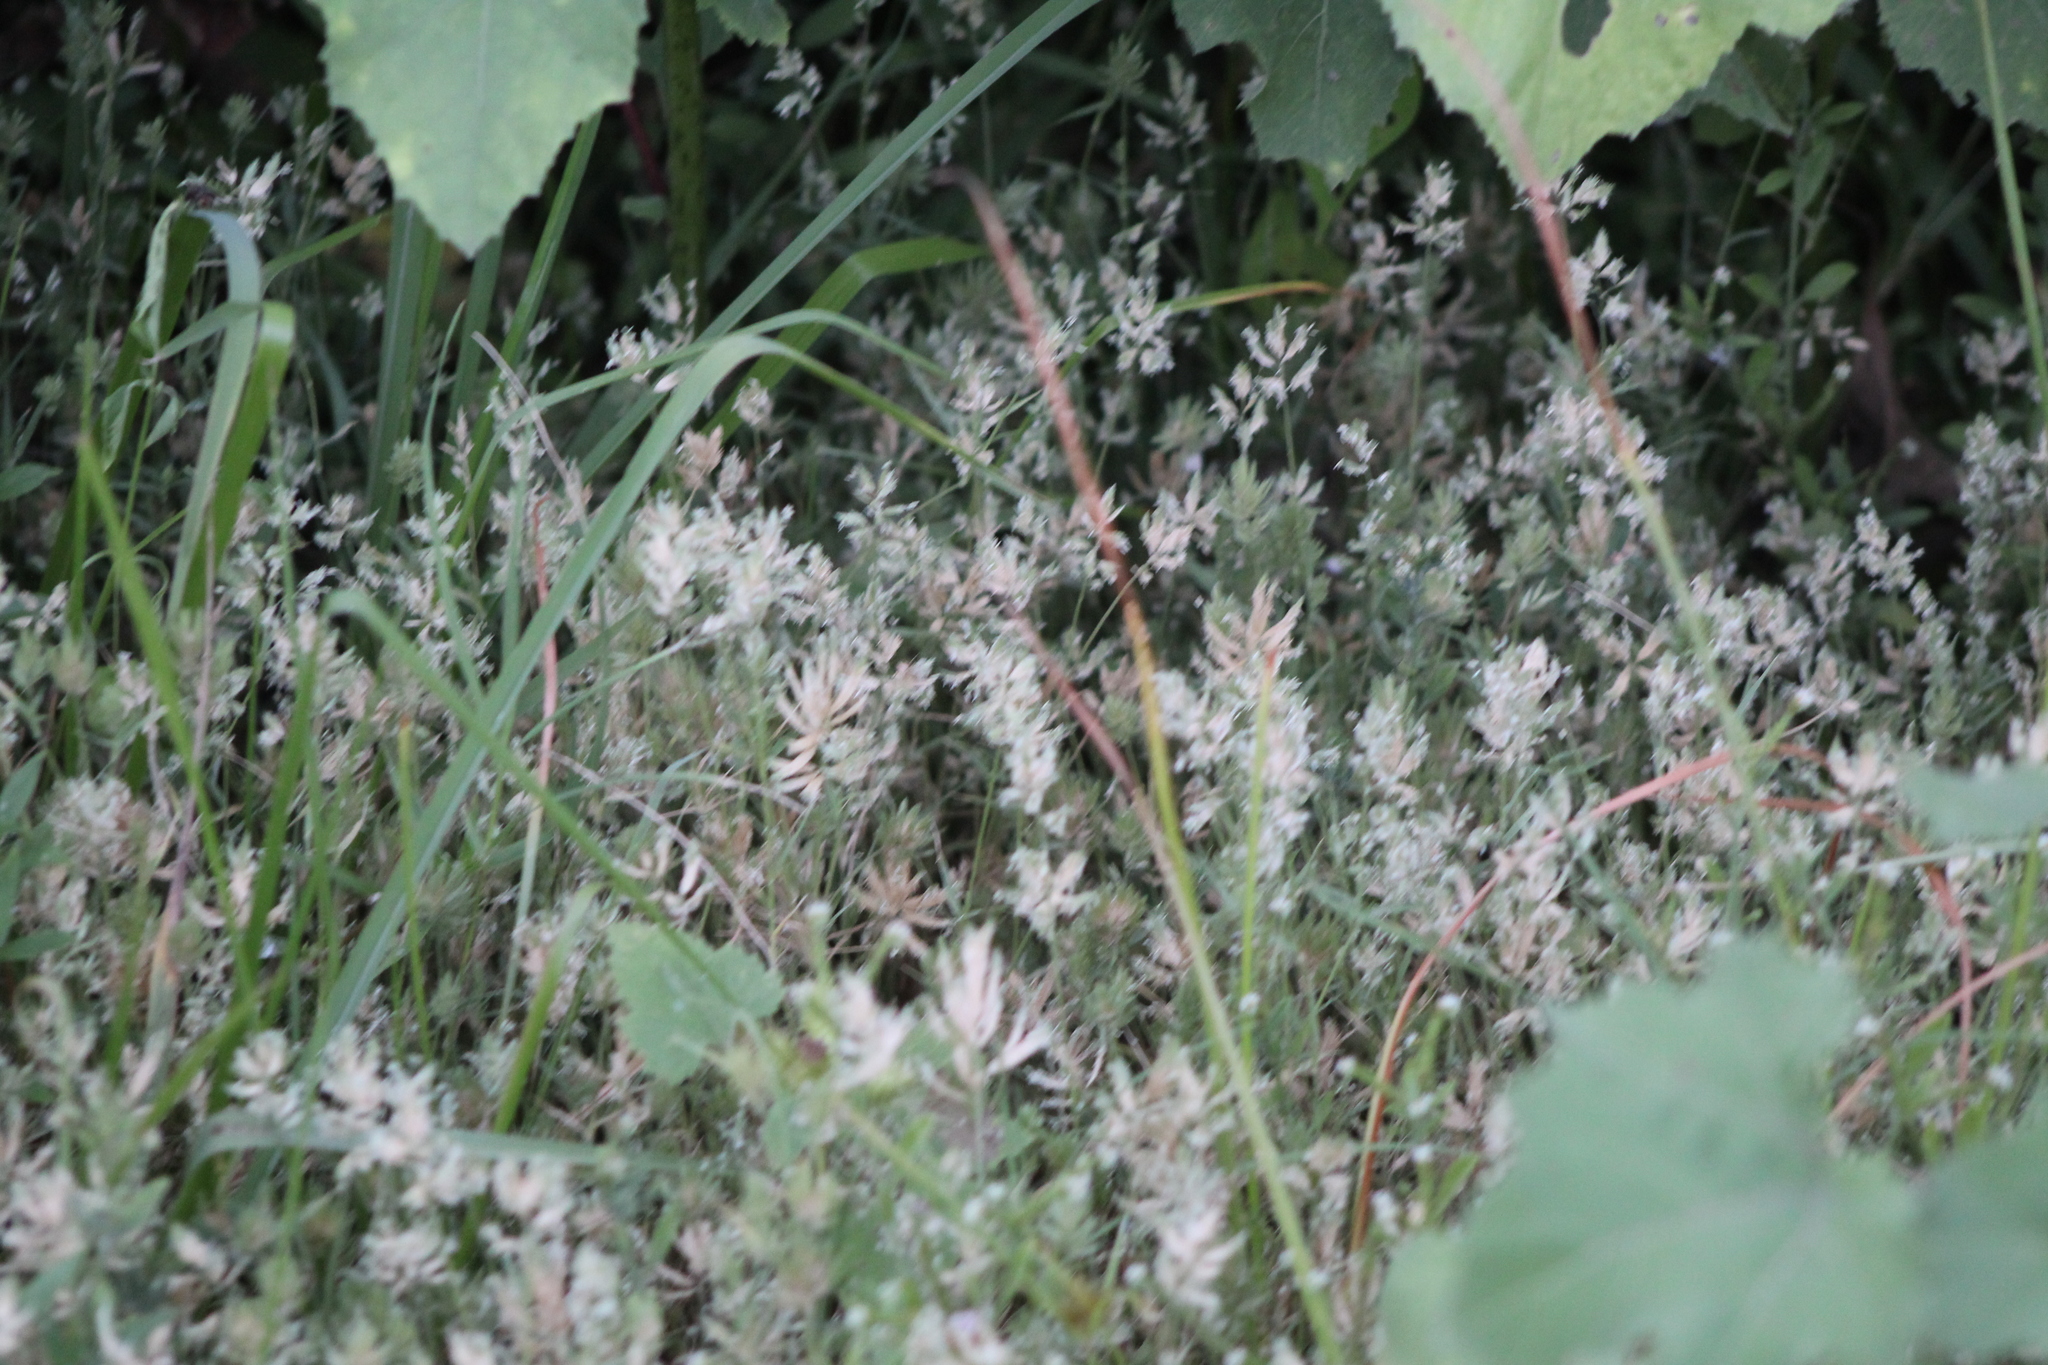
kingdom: Plantae
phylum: Tracheophyta
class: Liliopsida
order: Poales
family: Poaceae
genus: Eragrostis
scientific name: Eragrostis reptans
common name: Creeping love grass
